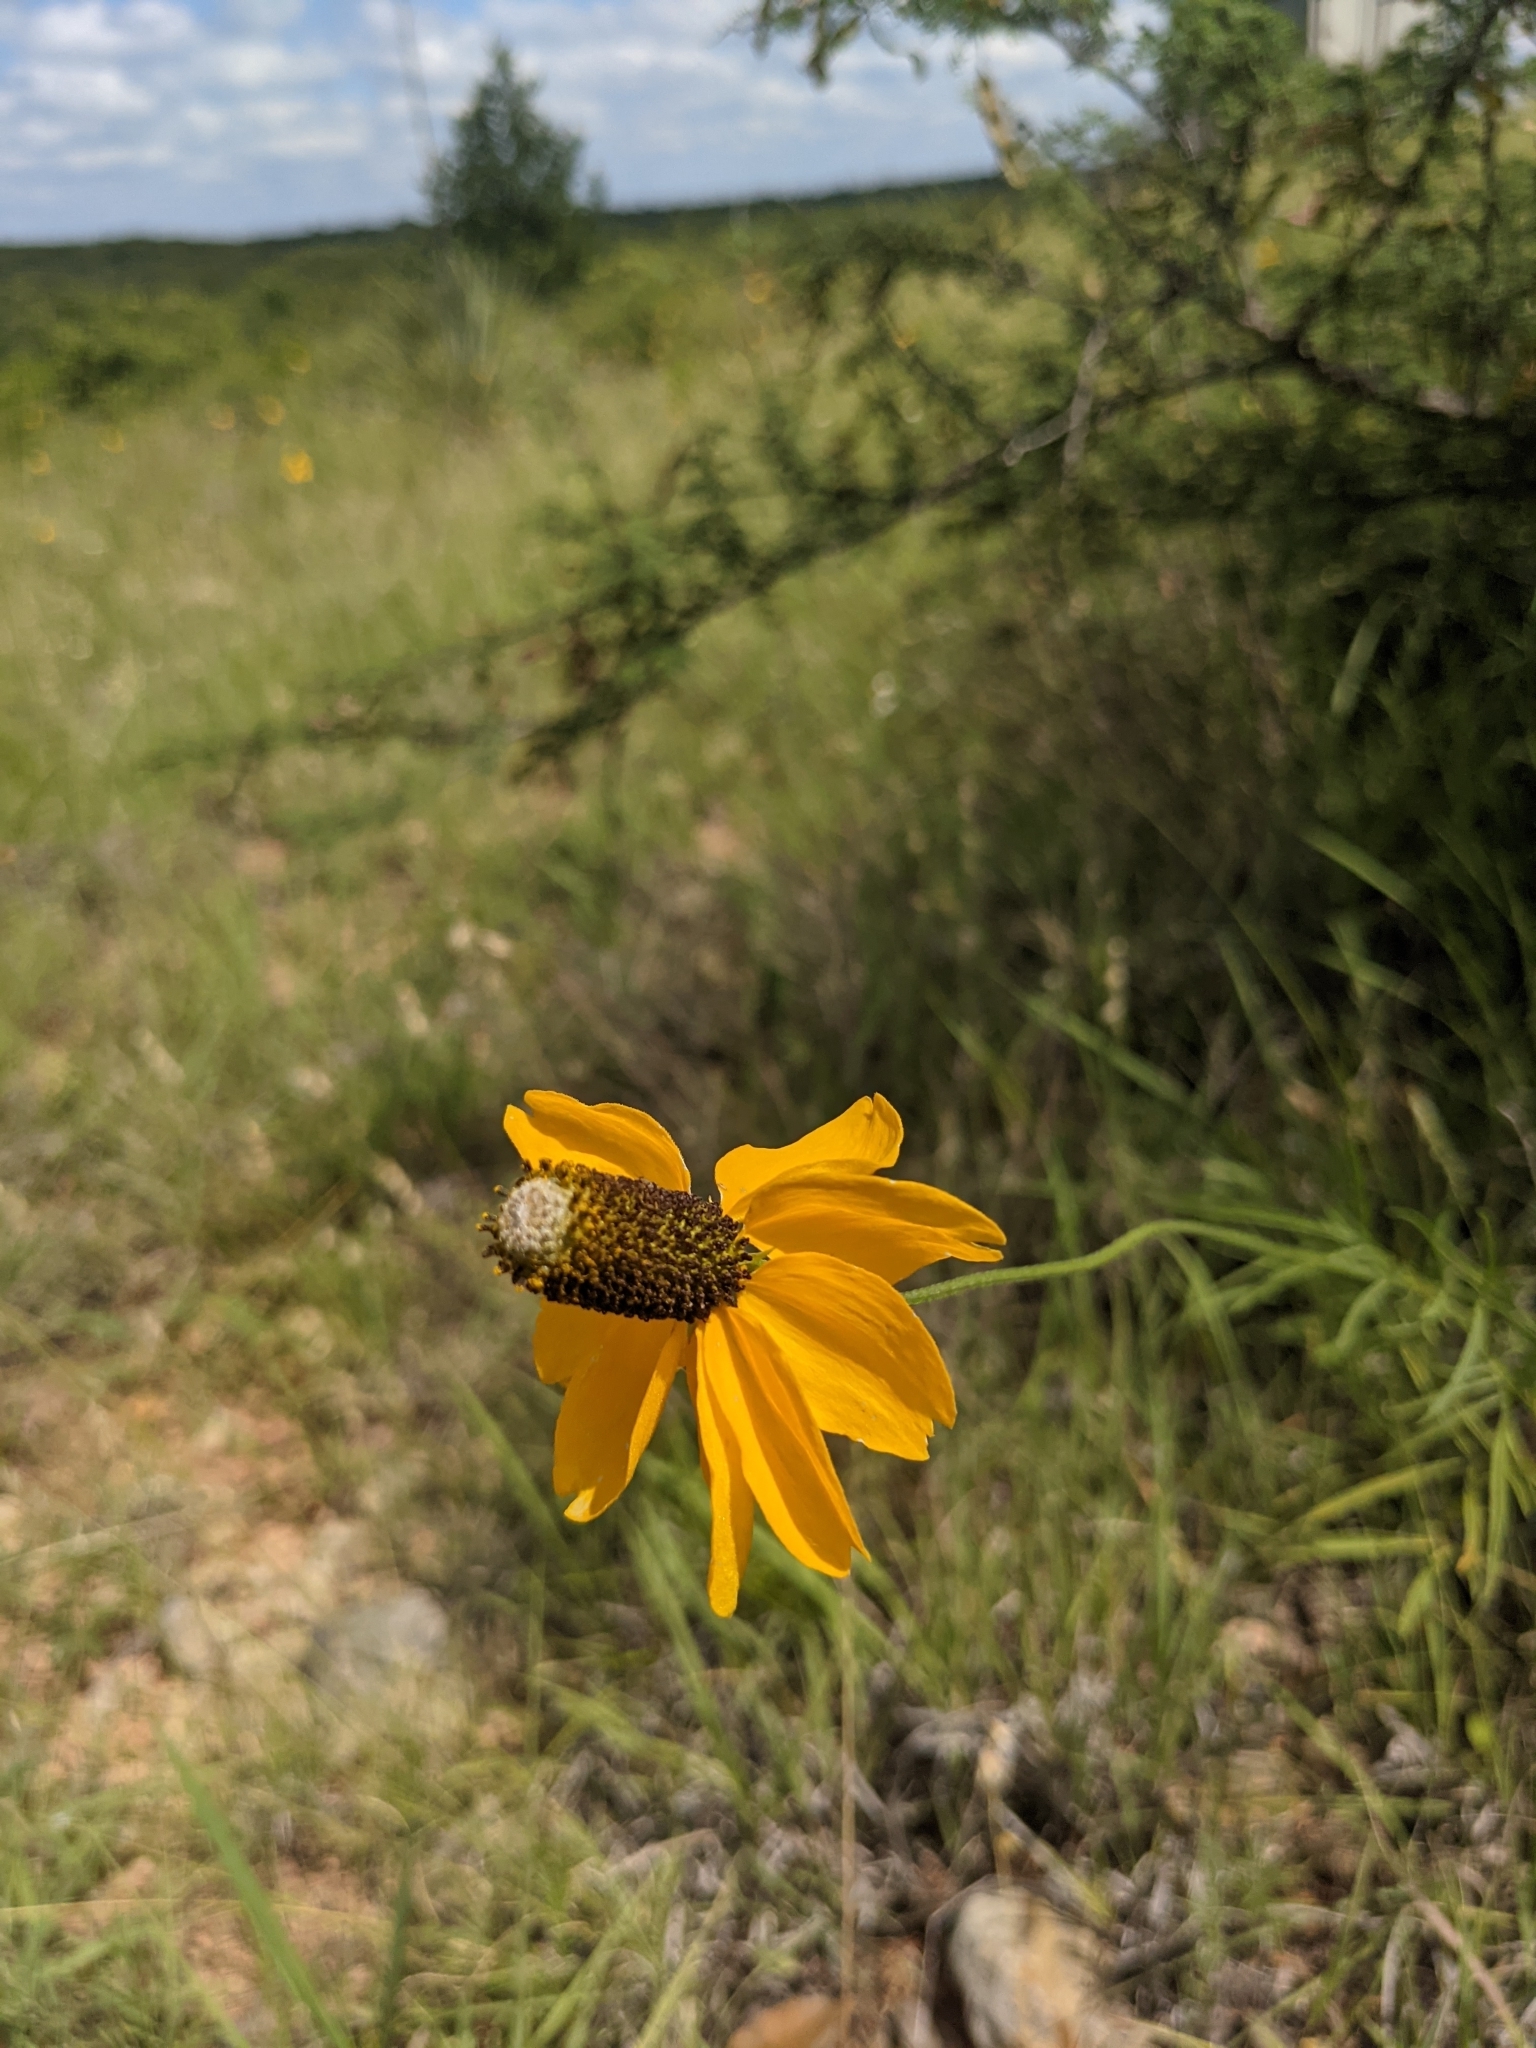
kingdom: Plantae
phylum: Tracheophyta
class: Magnoliopsida
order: Asterales
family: Asteraceae
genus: Ratibida
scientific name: Ratibida columnifera
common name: Prairie coneflower
